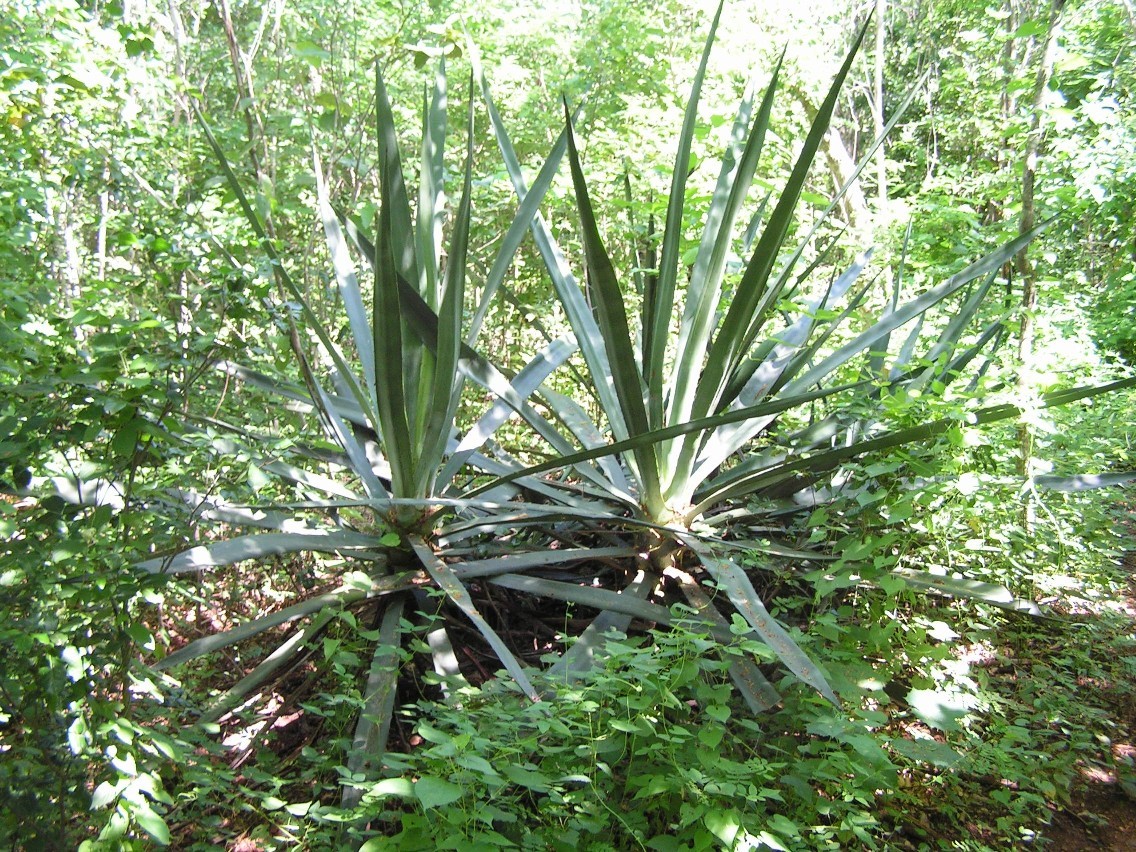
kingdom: Plantae
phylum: Tracheophyta
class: Liliopsida
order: Asparagales
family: Asparagaceae
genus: Agave
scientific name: Agave vivipara
